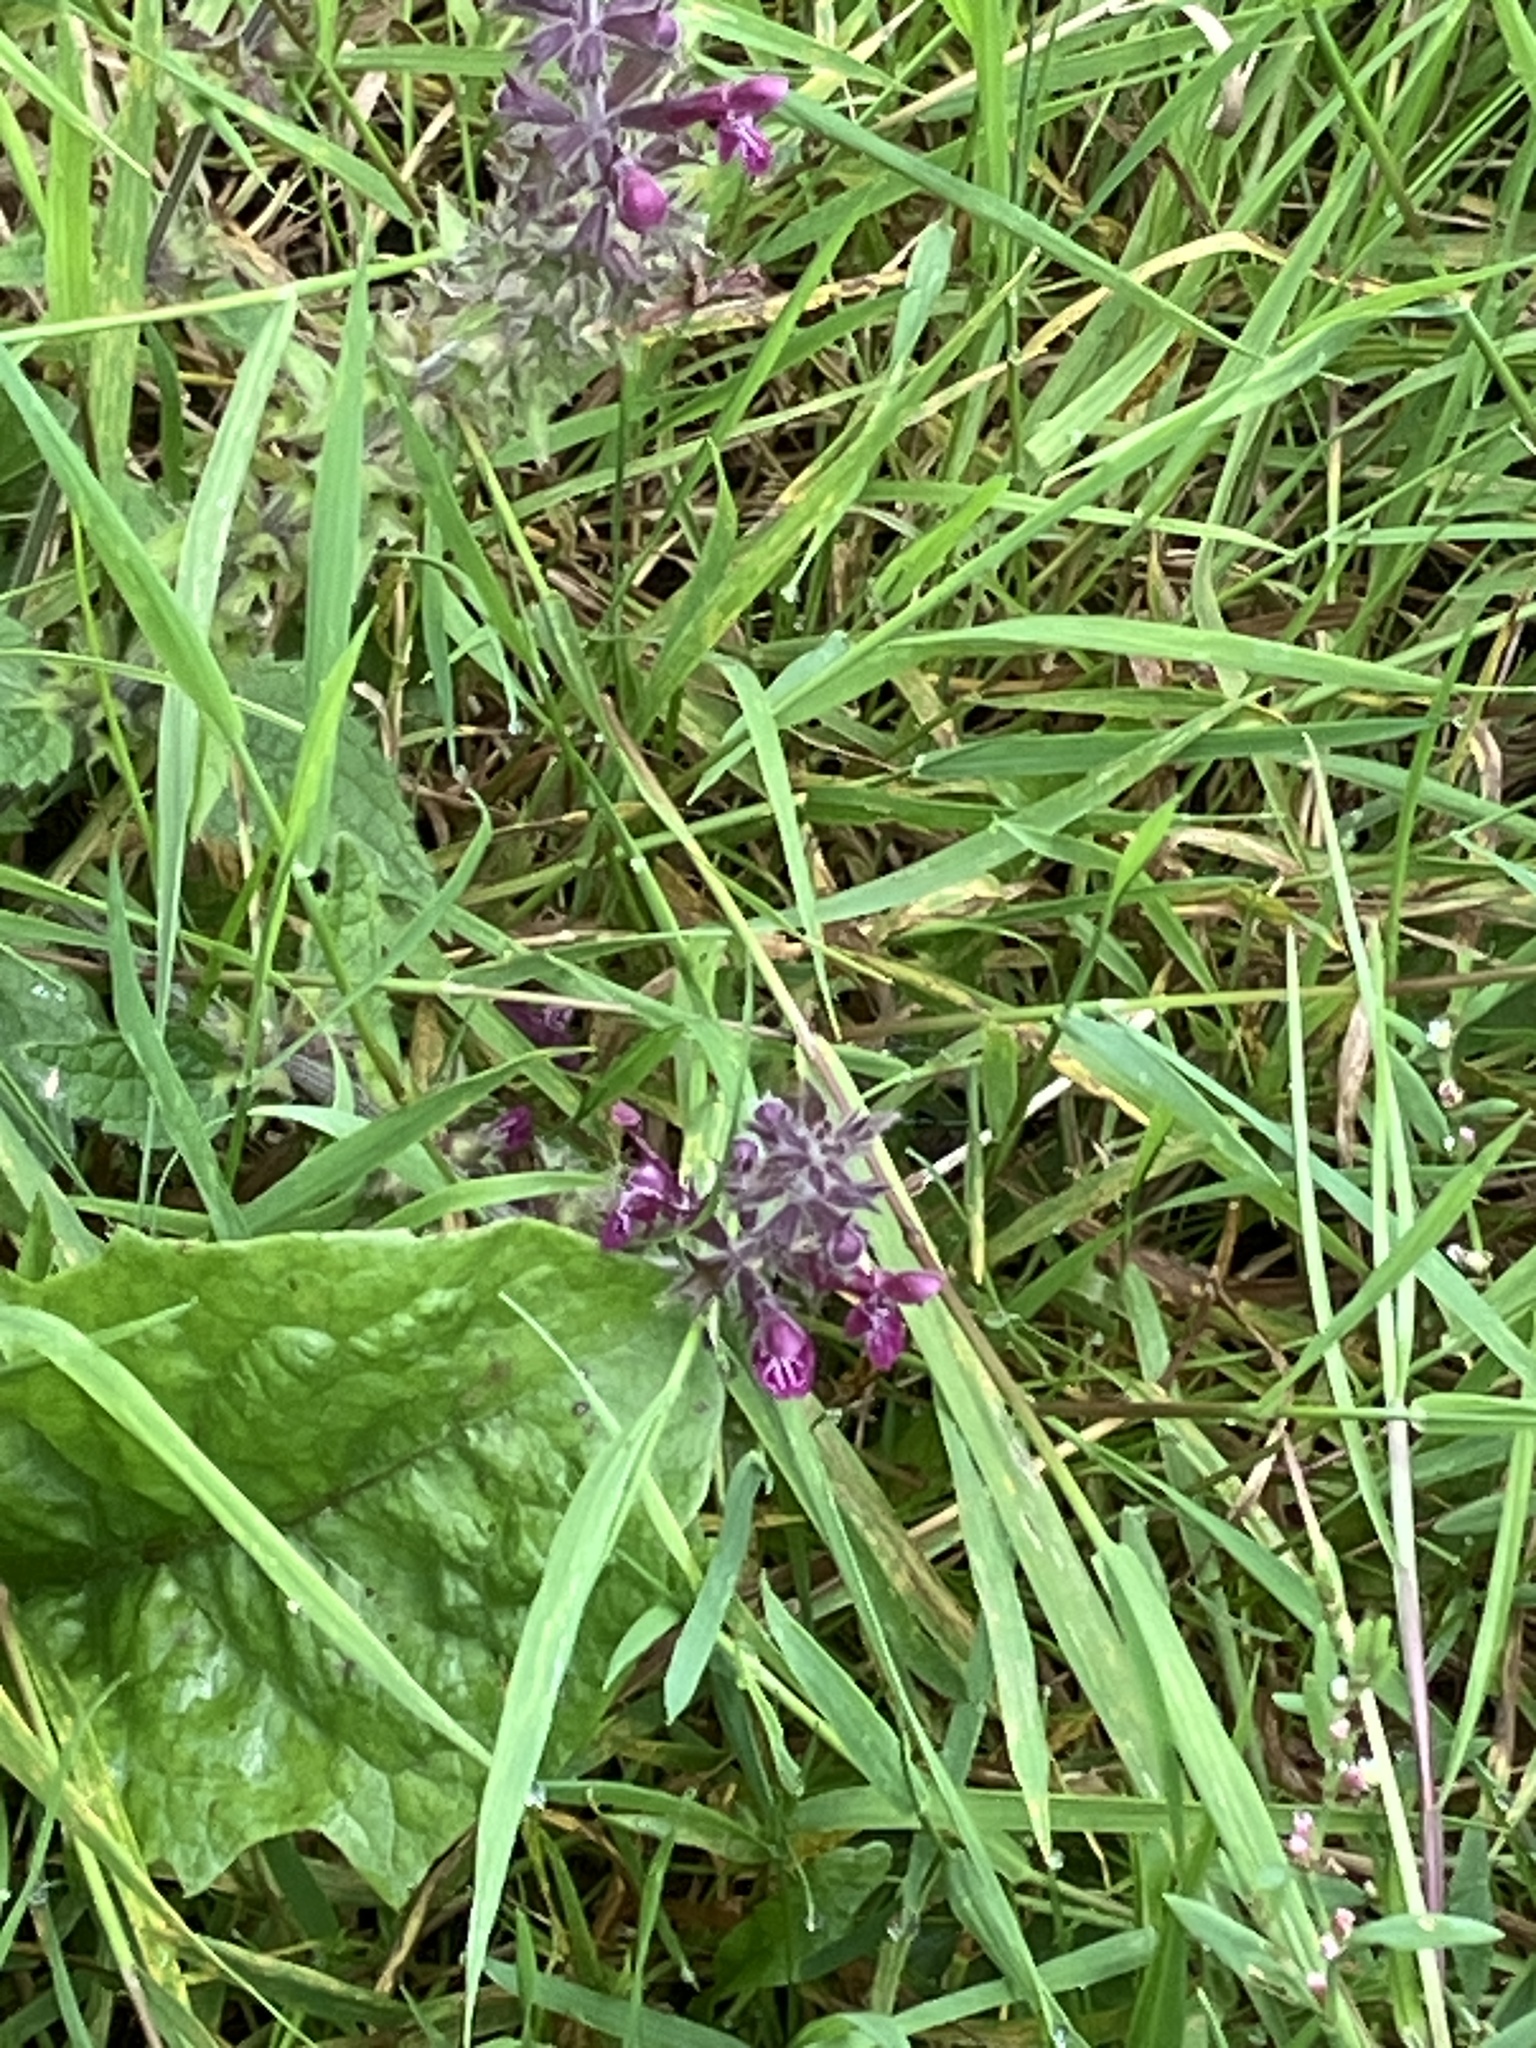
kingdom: Plantae
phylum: Tracheophyta
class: Magnoliopsida
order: Lamiales
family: Lamiaceae
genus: Stachys
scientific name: Stachys sylvatica
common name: Hedge woundwort
